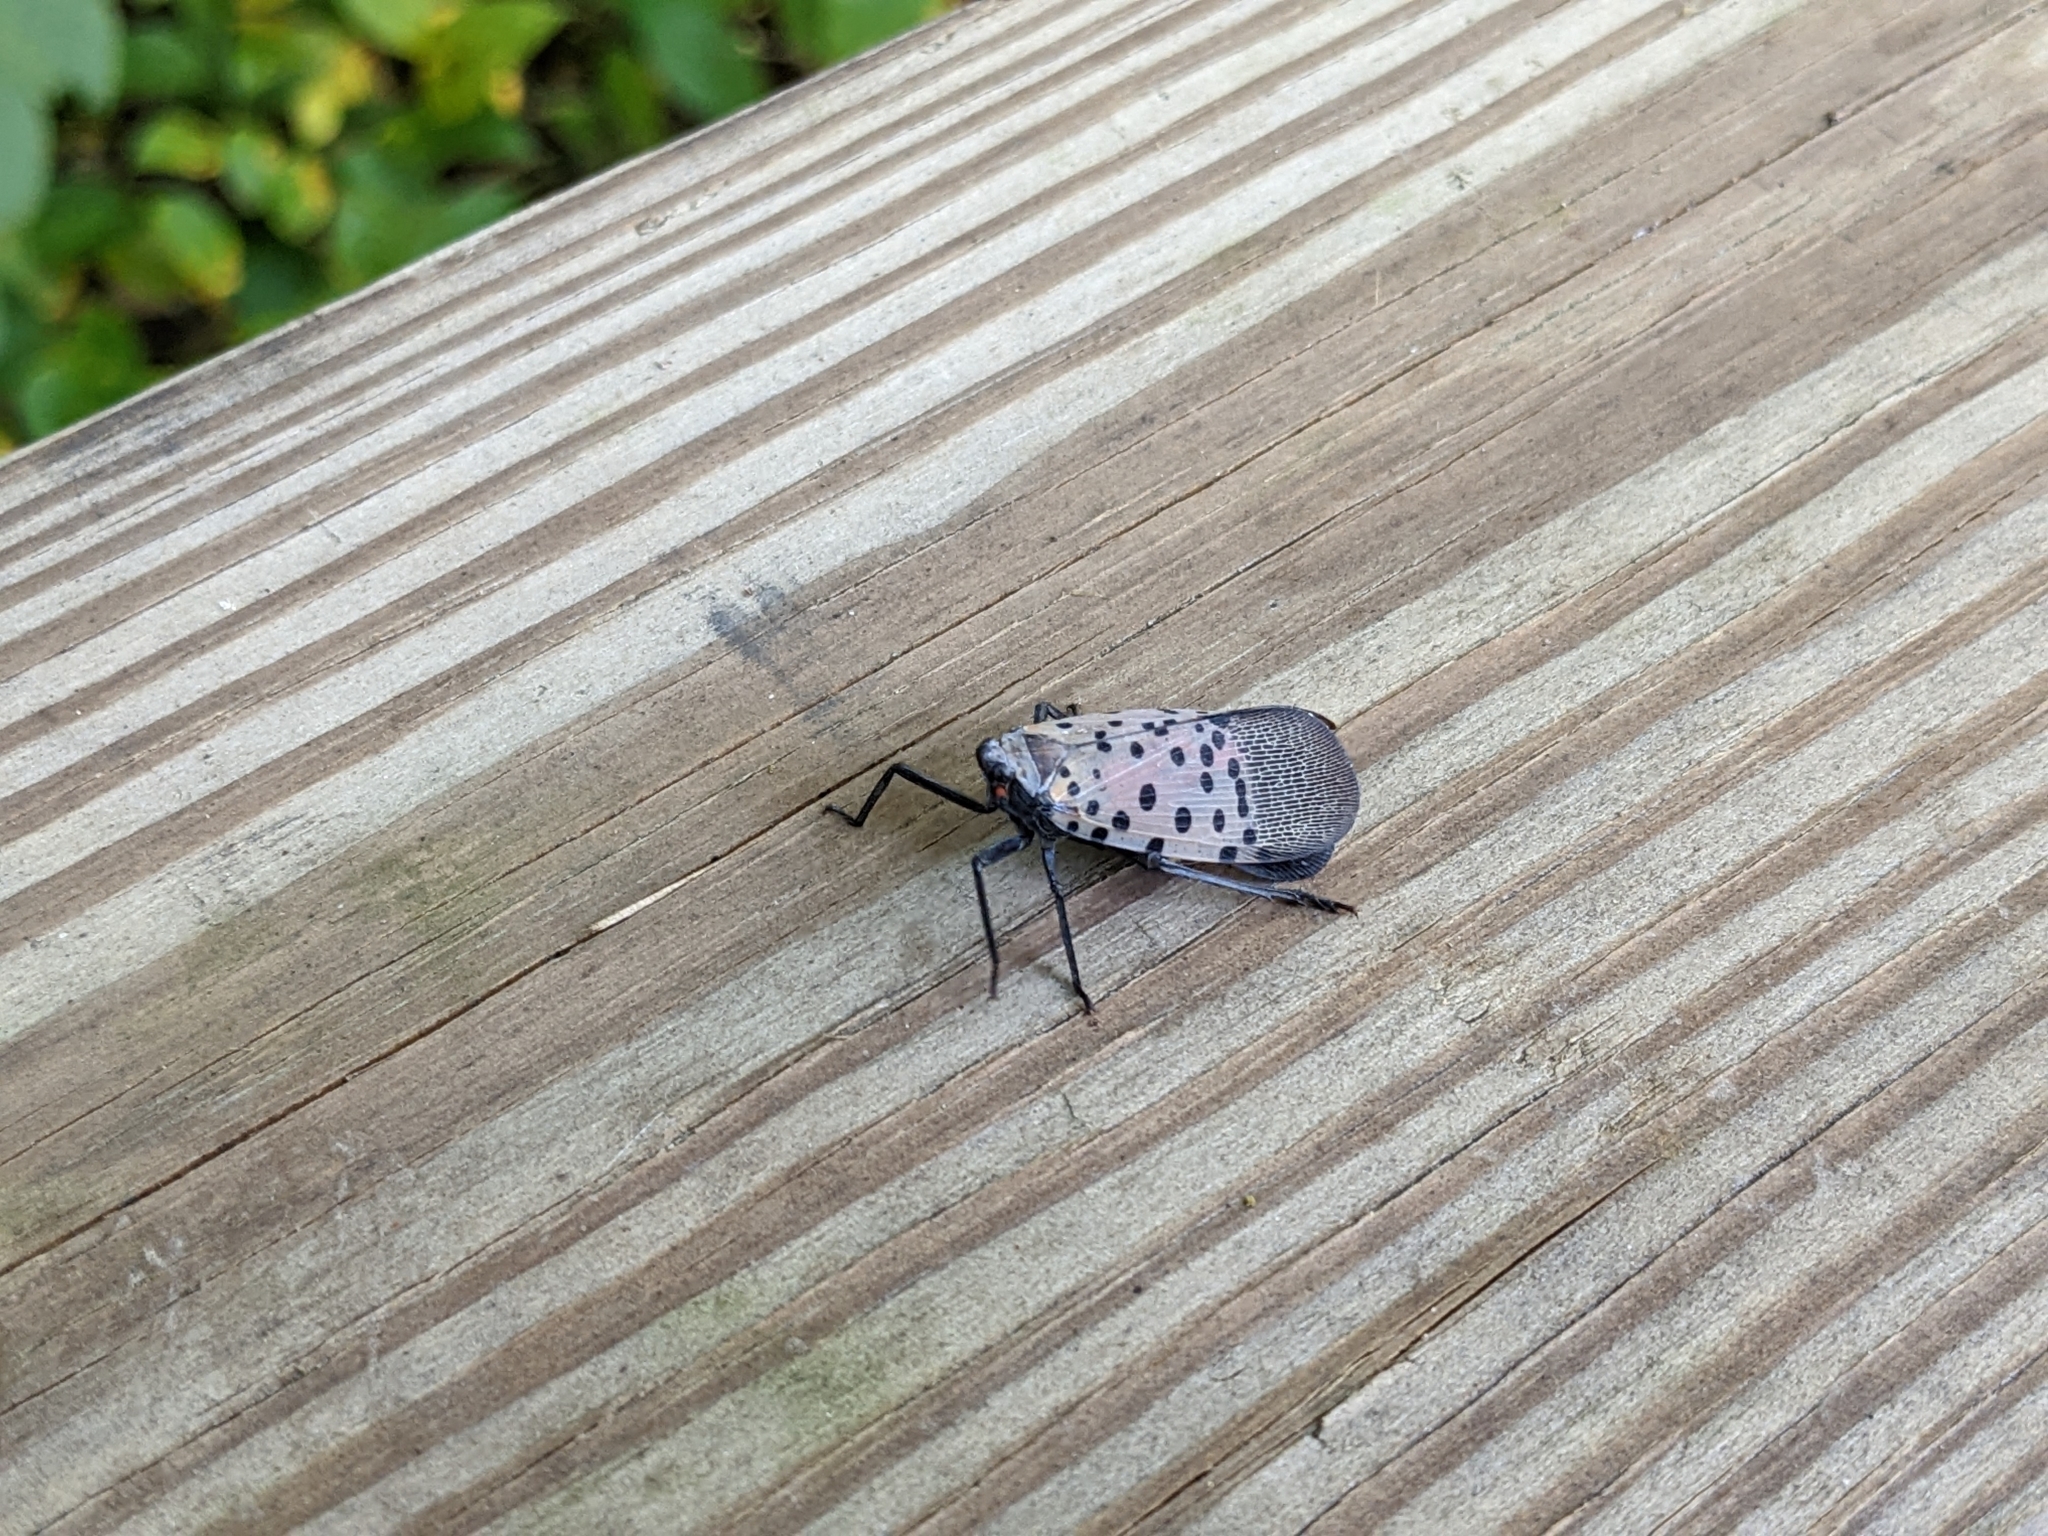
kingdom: Animalia
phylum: Arthropoda
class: Insecta
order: Hemiptera
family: Fulgoridae
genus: Lycorma
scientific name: Lycorma delicatula
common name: Spotted lanternfly
